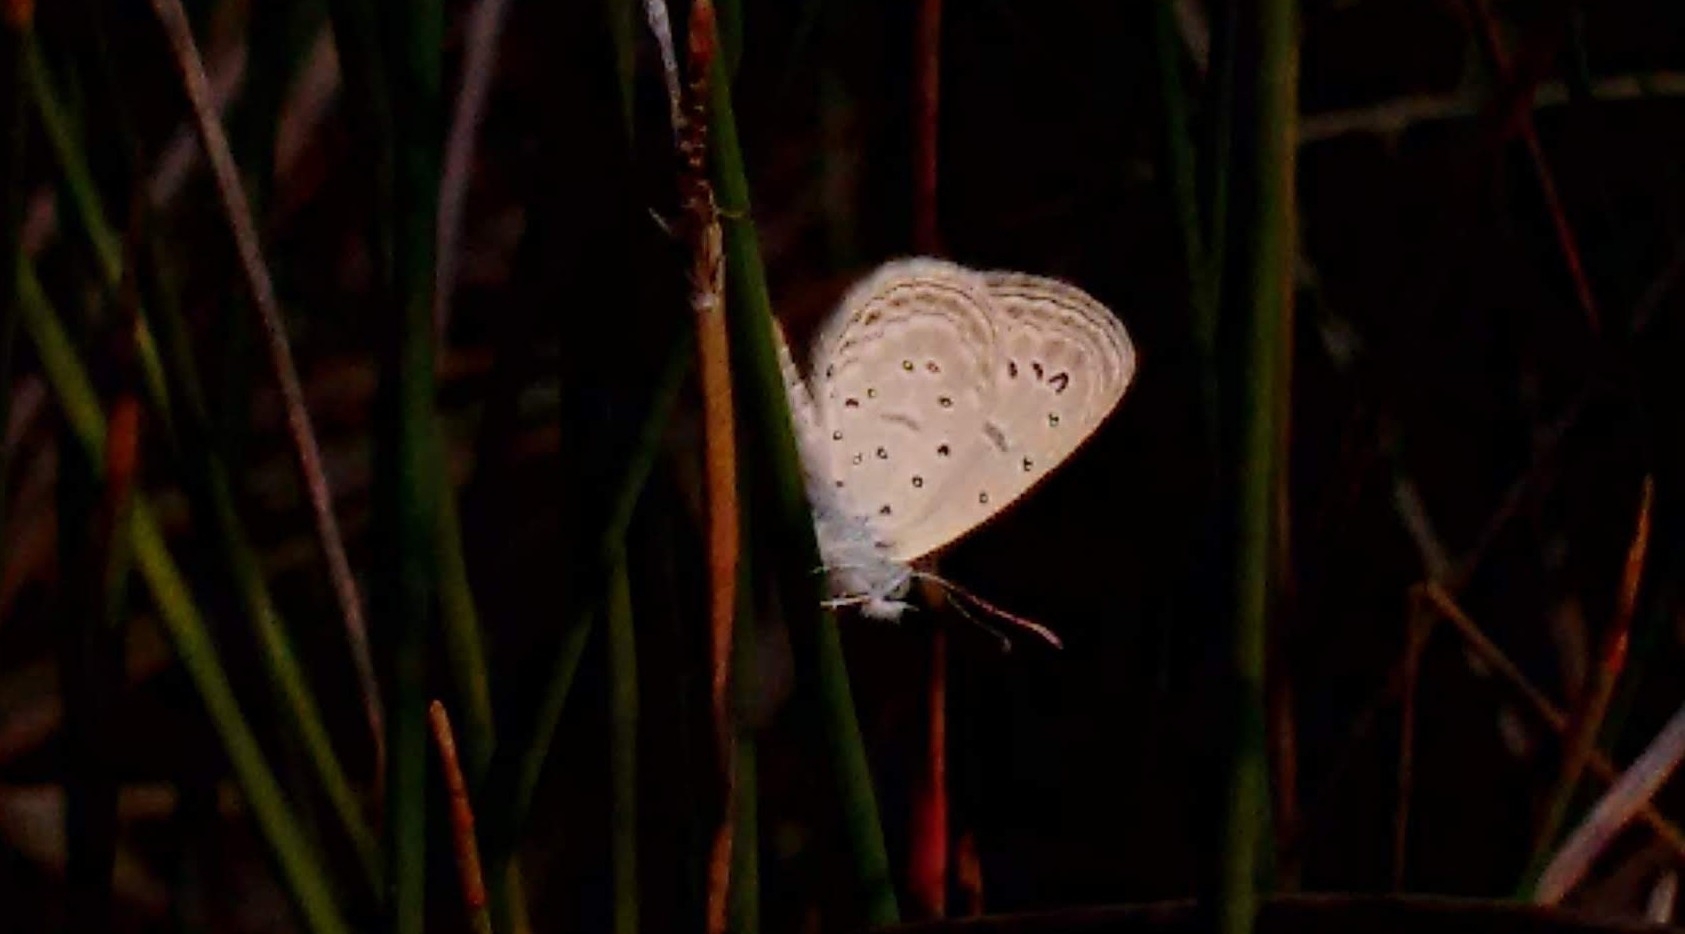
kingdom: Animalia
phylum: Arthropoda
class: Insecta
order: Lepidoptera
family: Lycaenidae
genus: Zizula
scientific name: Zizula hylax
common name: Gaika blue
